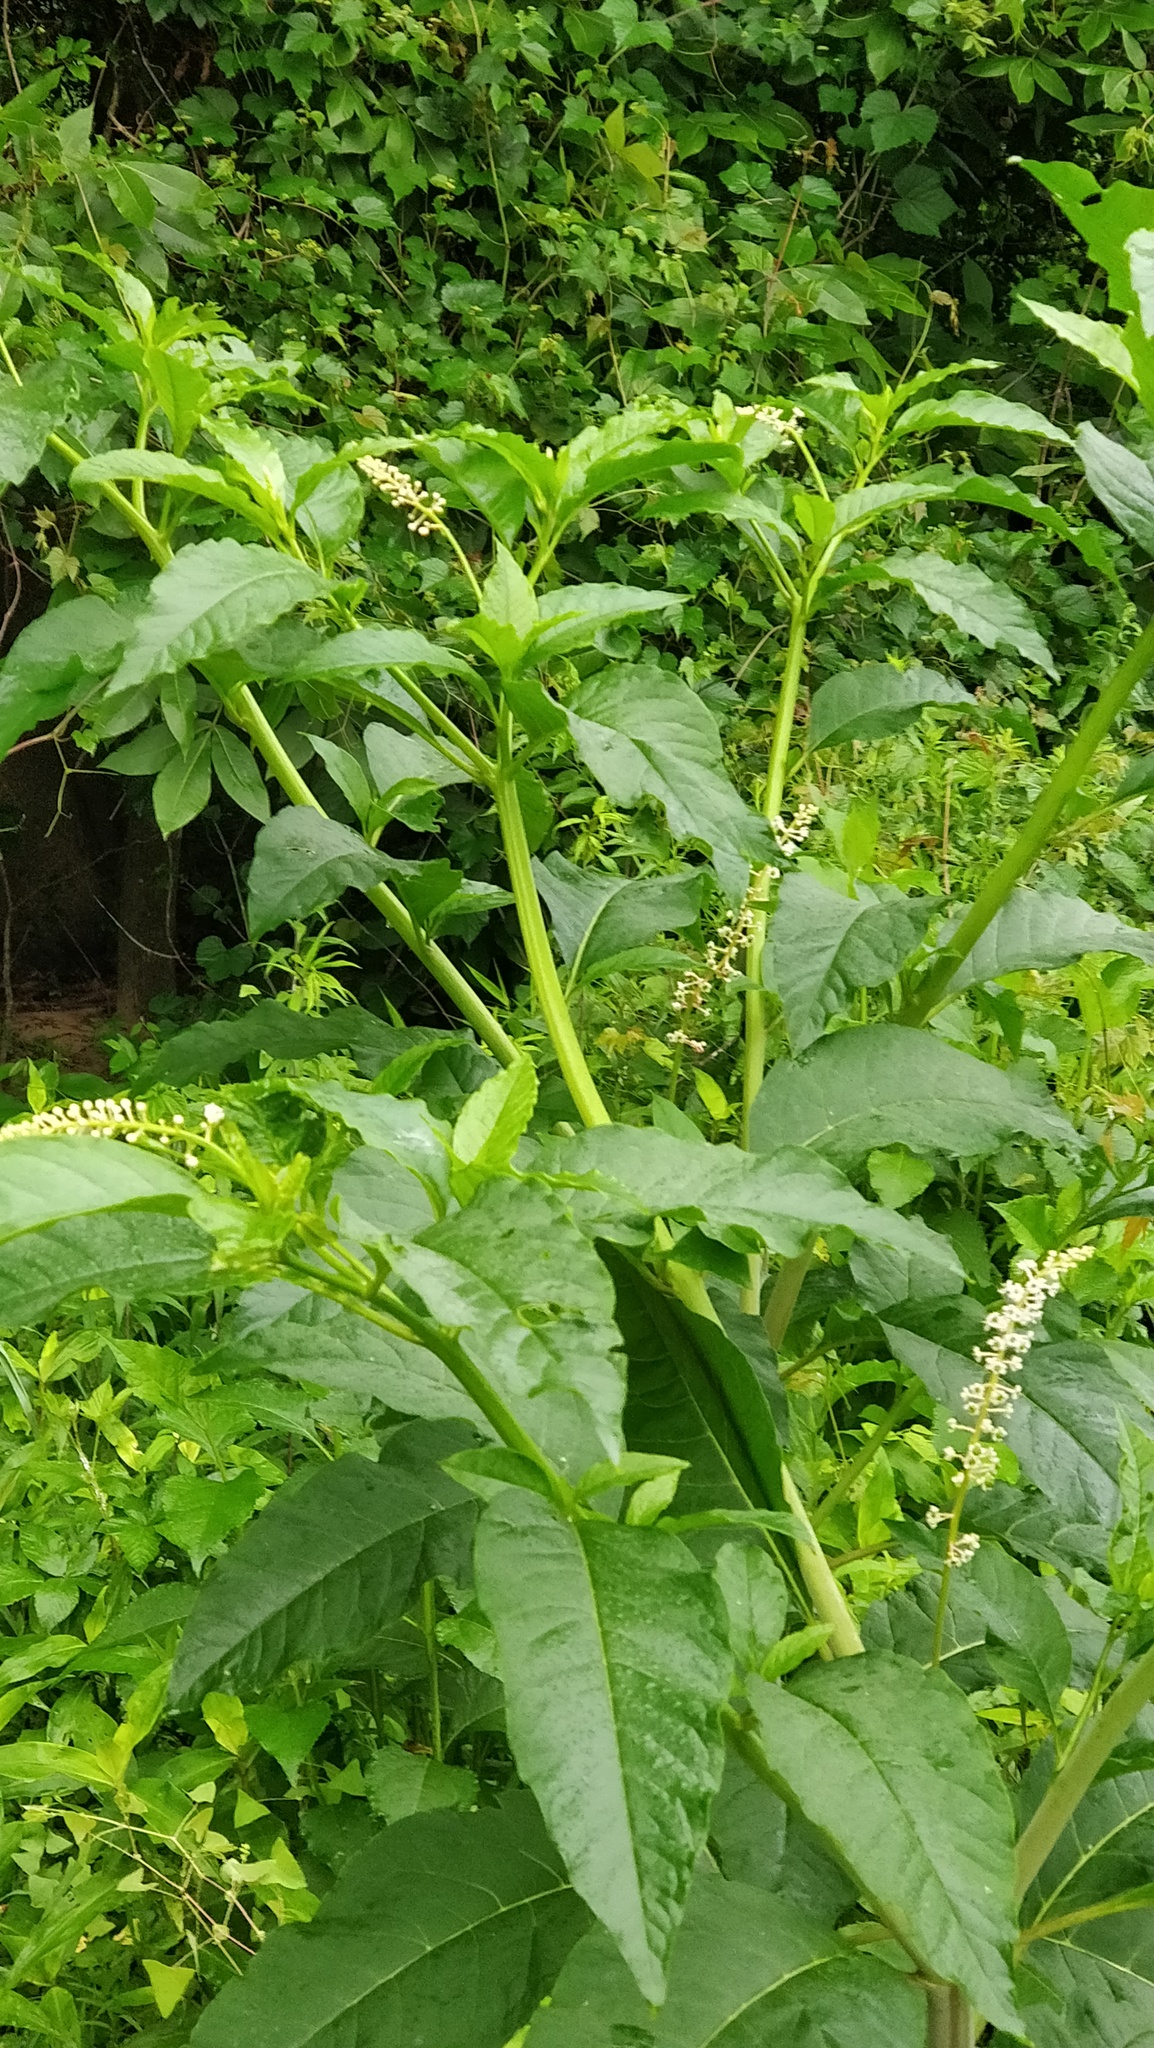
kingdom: Plantae
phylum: Tracheophyta
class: Magnoliopsida
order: Caryophyllales
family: Phytolaccaceae
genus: Phytolacca
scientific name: Phytolacca americana
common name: American pokeweed
